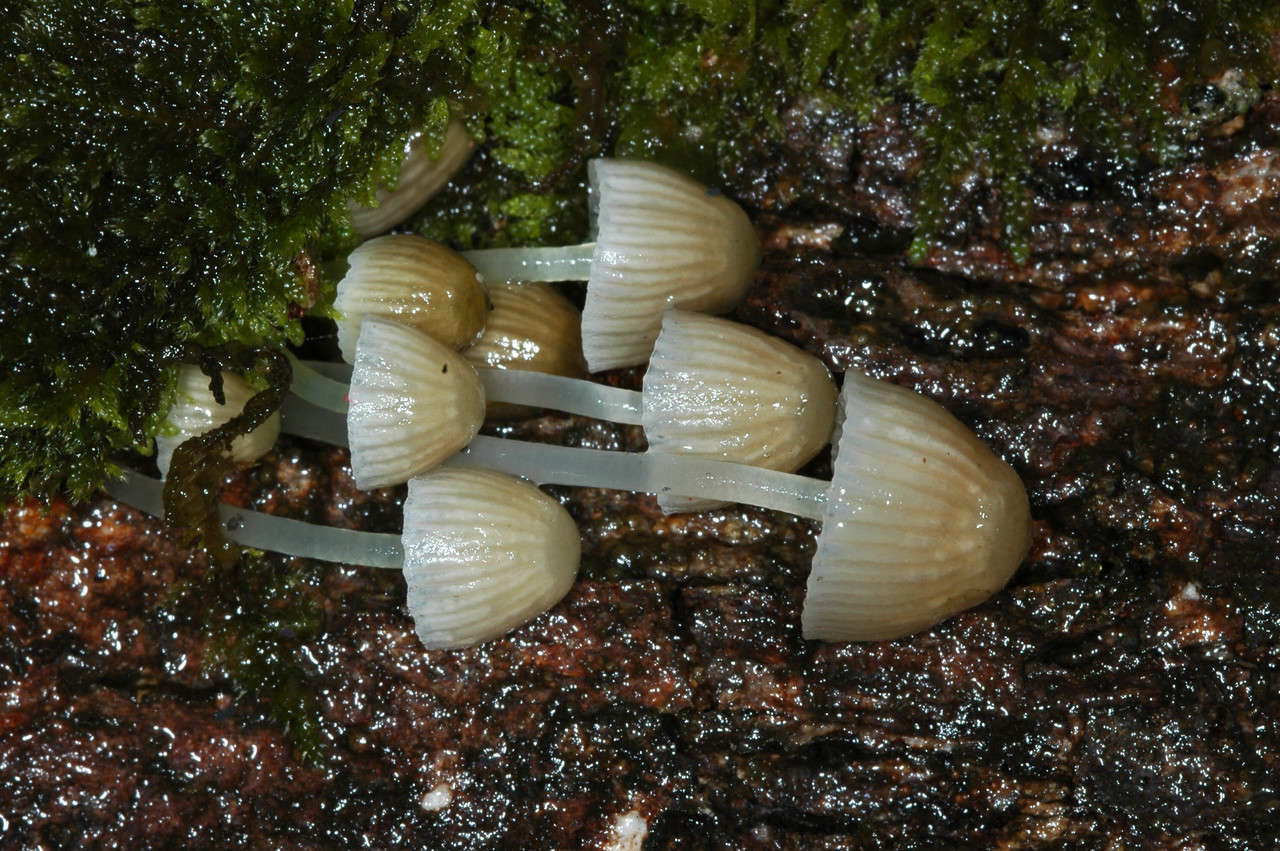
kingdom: Fungi
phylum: Basidiomycota
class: Agaricomycetes
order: Agaricales
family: Mycenaceae
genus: Mycena
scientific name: Mycena subgalericulata
